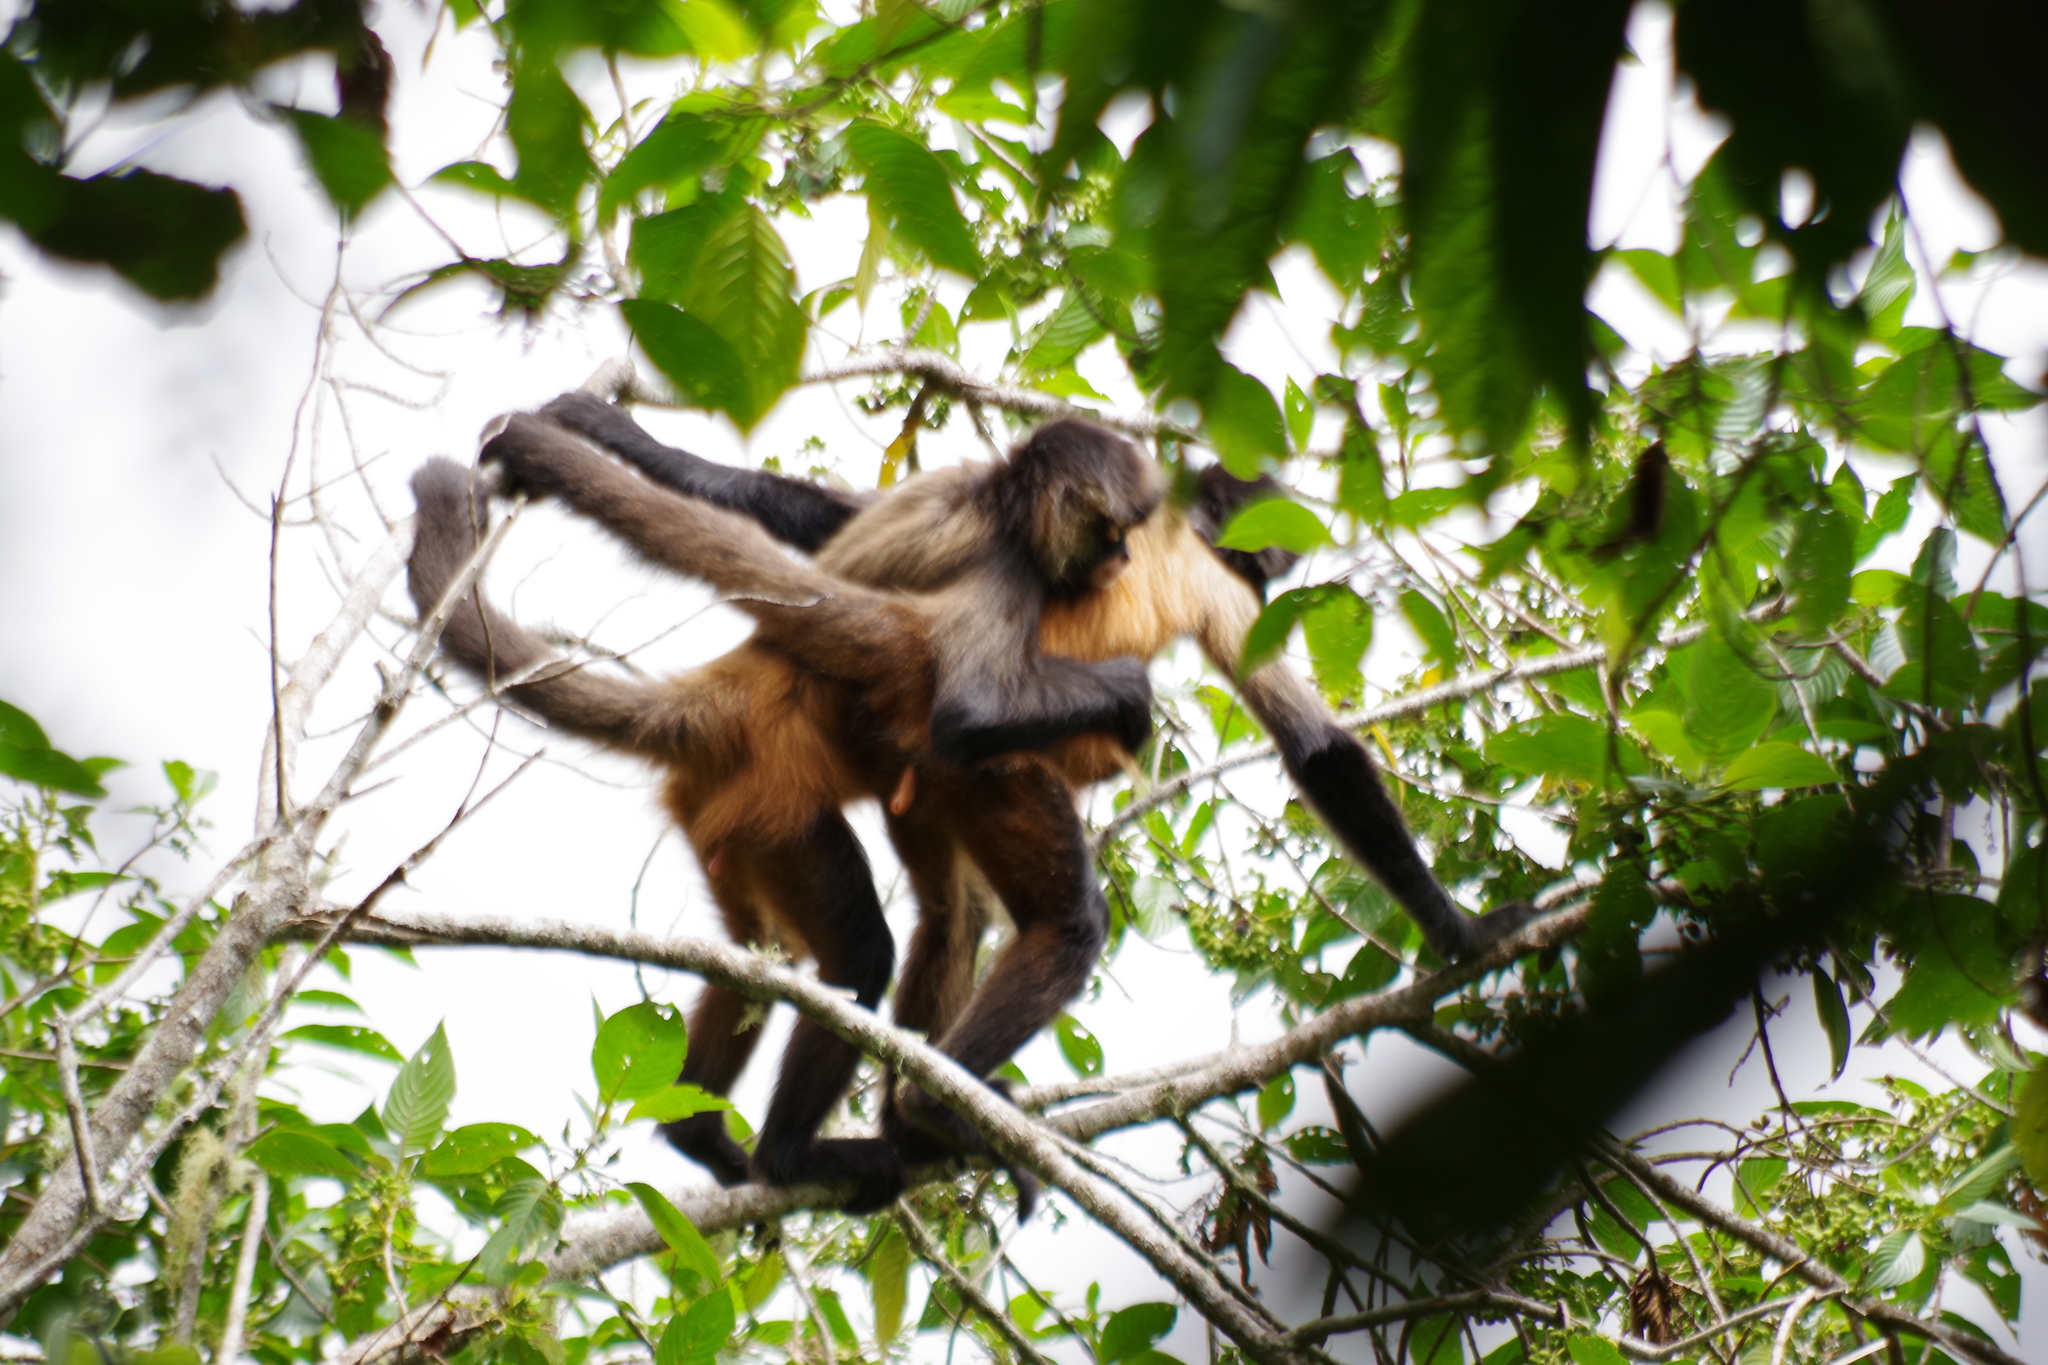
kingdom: Animalia
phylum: Chordata
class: Mammalia
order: Primates
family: Atelidae
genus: Ateles
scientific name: Ateles geoffroyi
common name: Black-handed spider monkey
